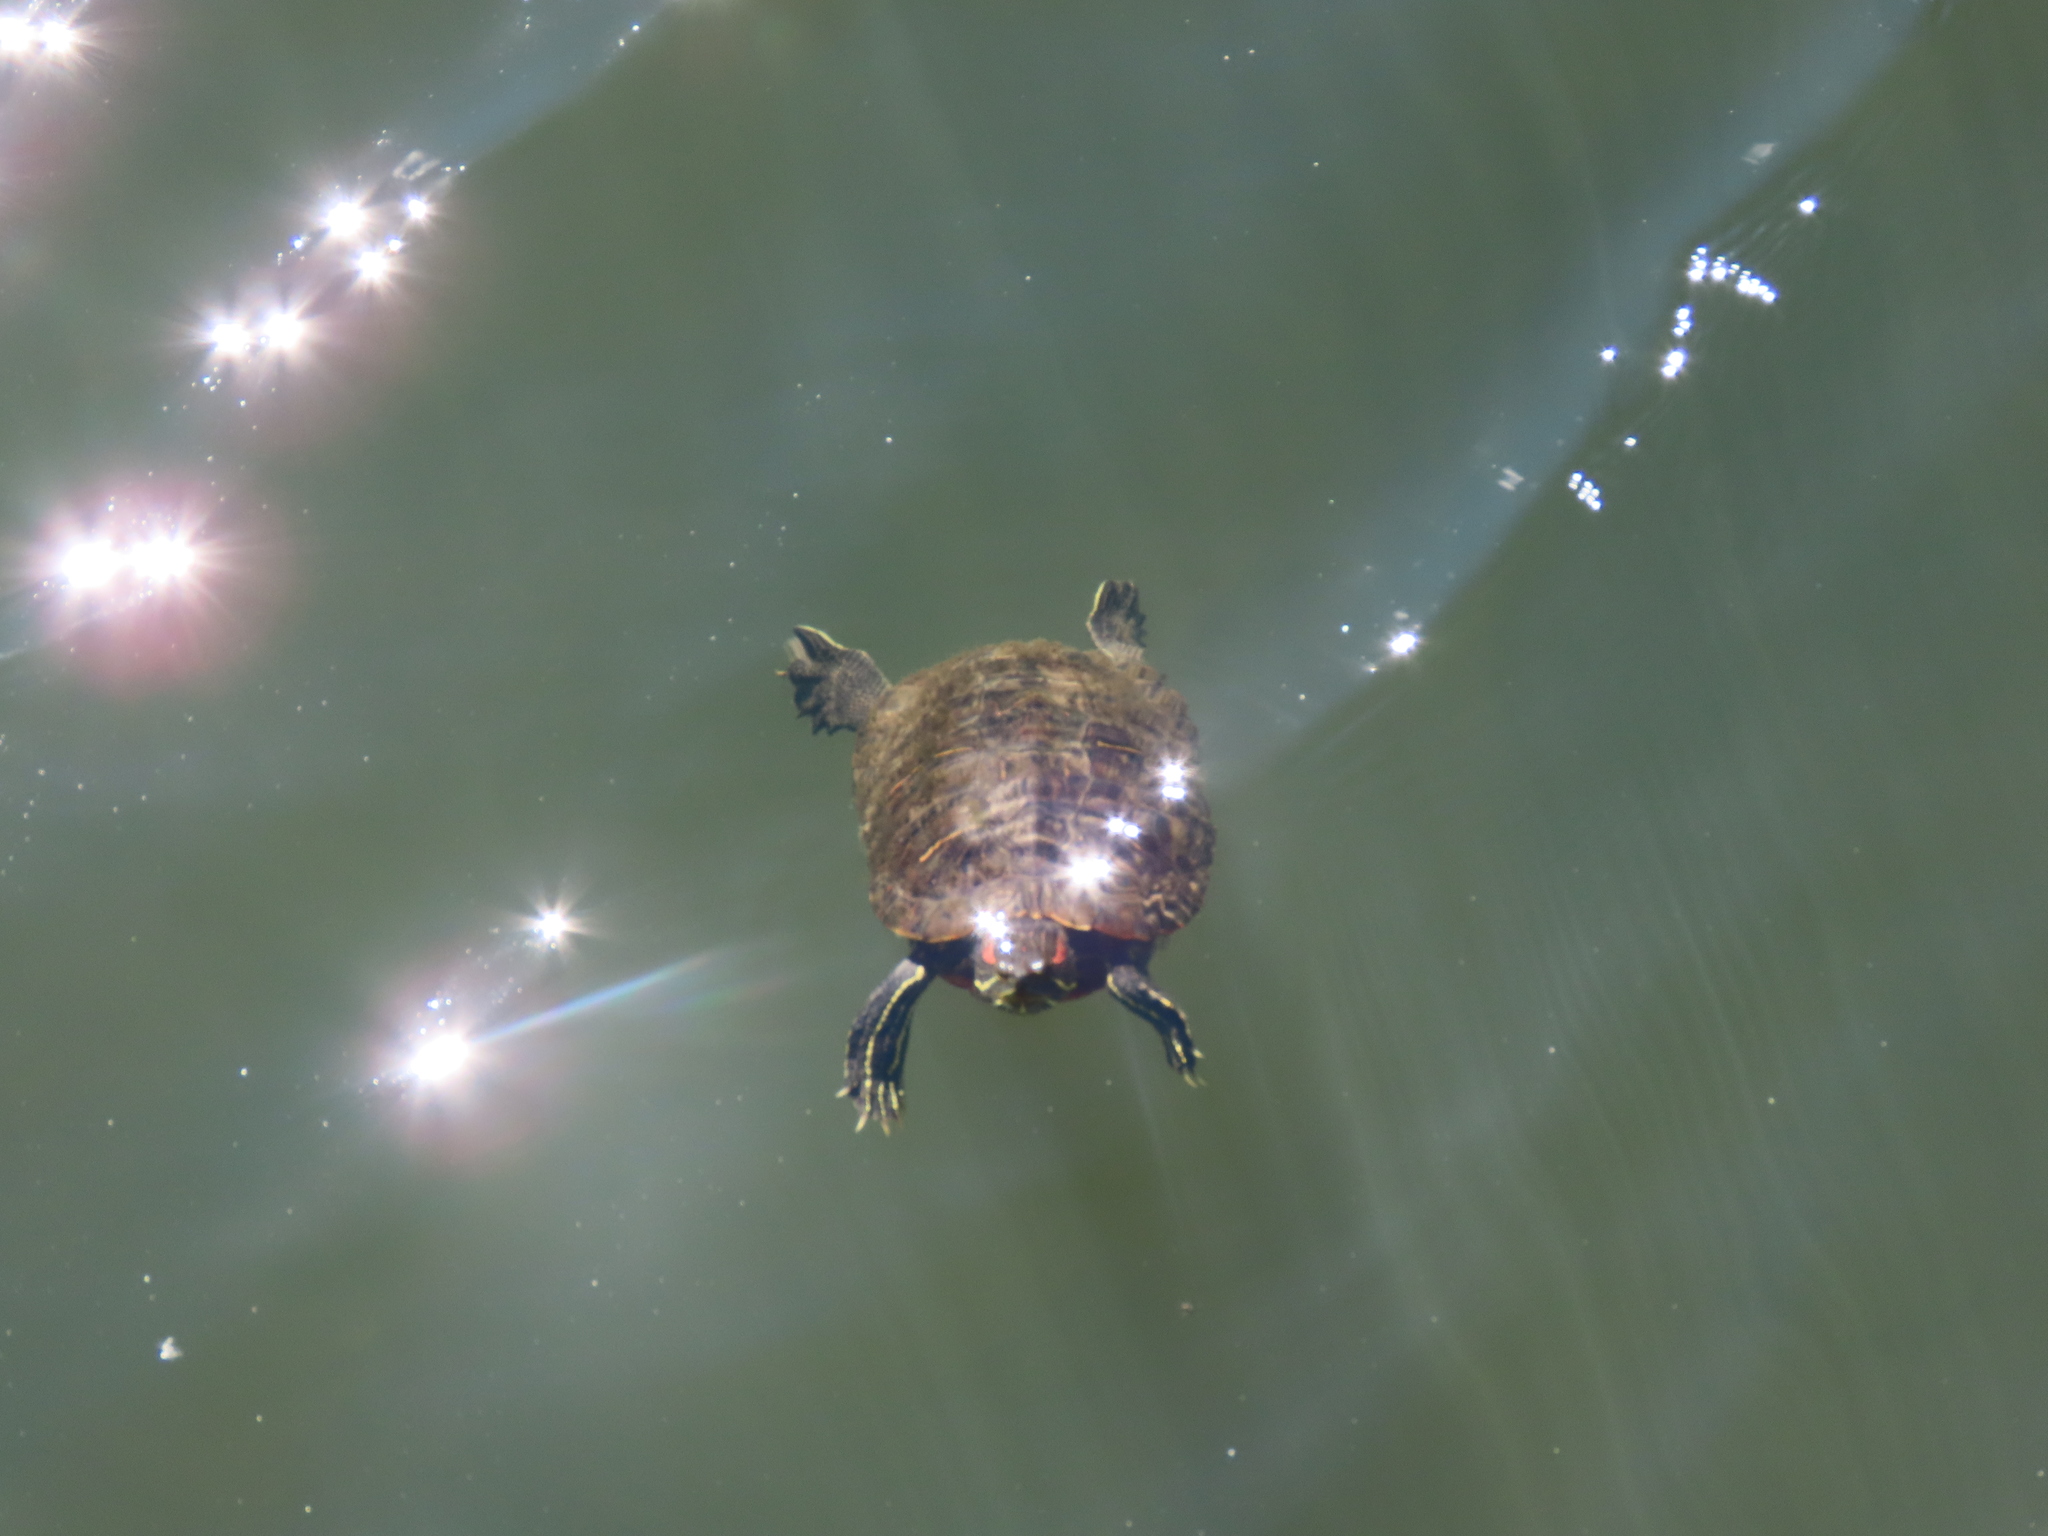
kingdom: Animalia
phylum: Chordata
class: Testudines
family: Emydidae
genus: Trachemys
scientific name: Trachemys scripta
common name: Slider
